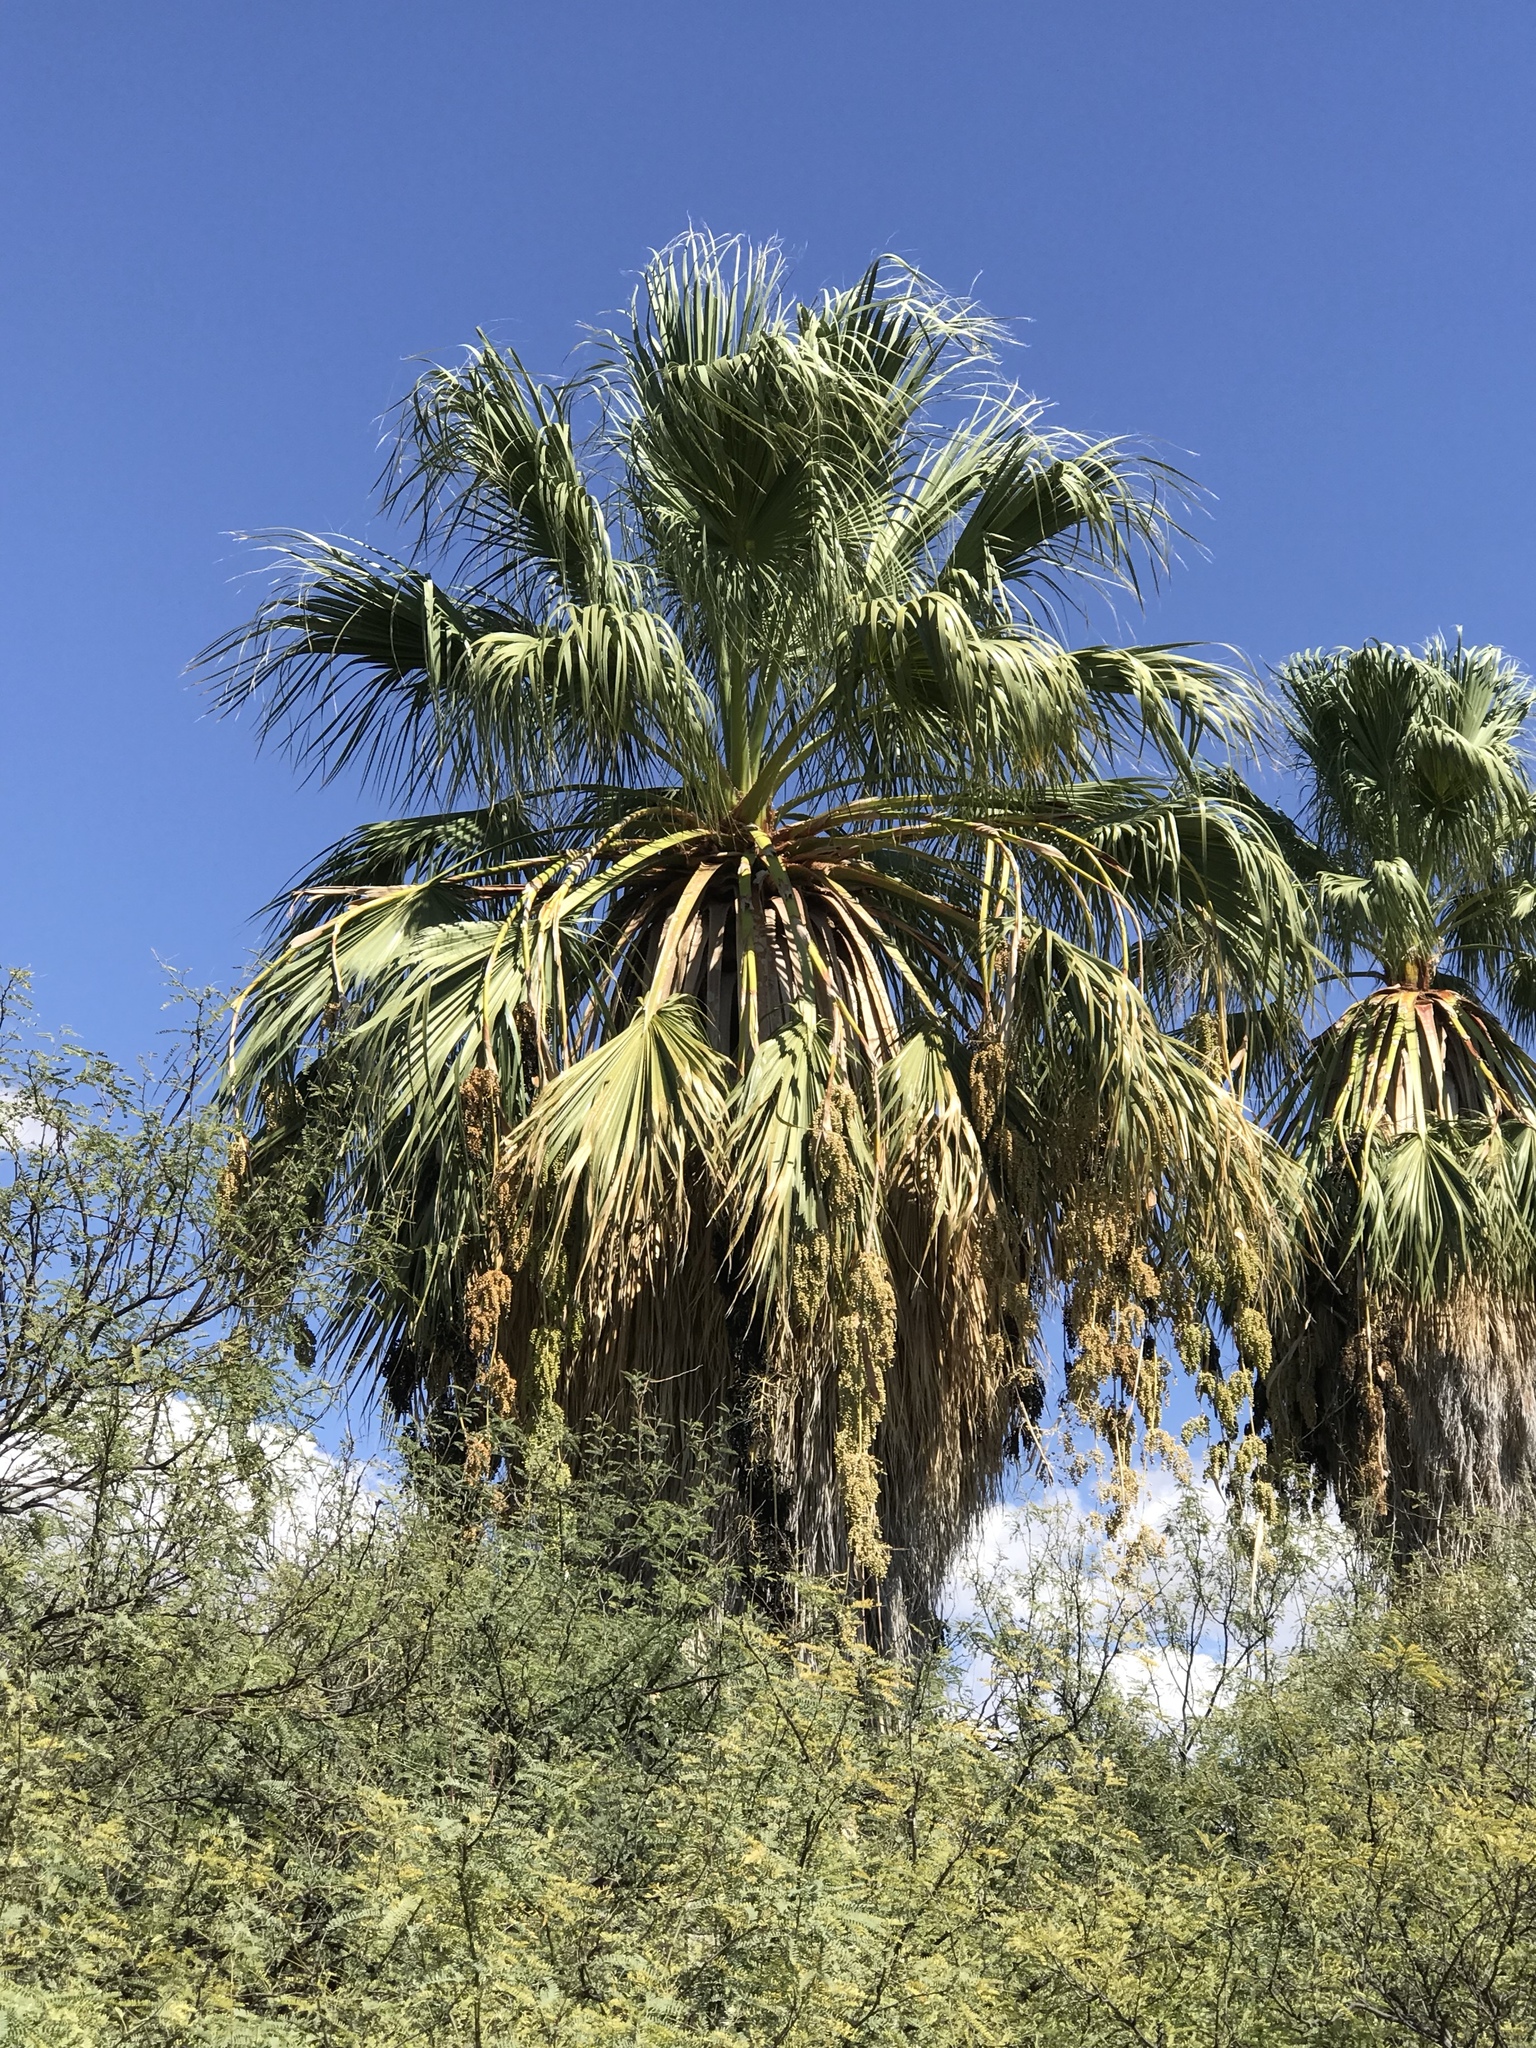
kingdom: Plantae
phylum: Tracheophyta
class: Liliopsida
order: Arecales
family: Arecaceae
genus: Washingtonia
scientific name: Washingtonia filifera
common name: California fan palm
